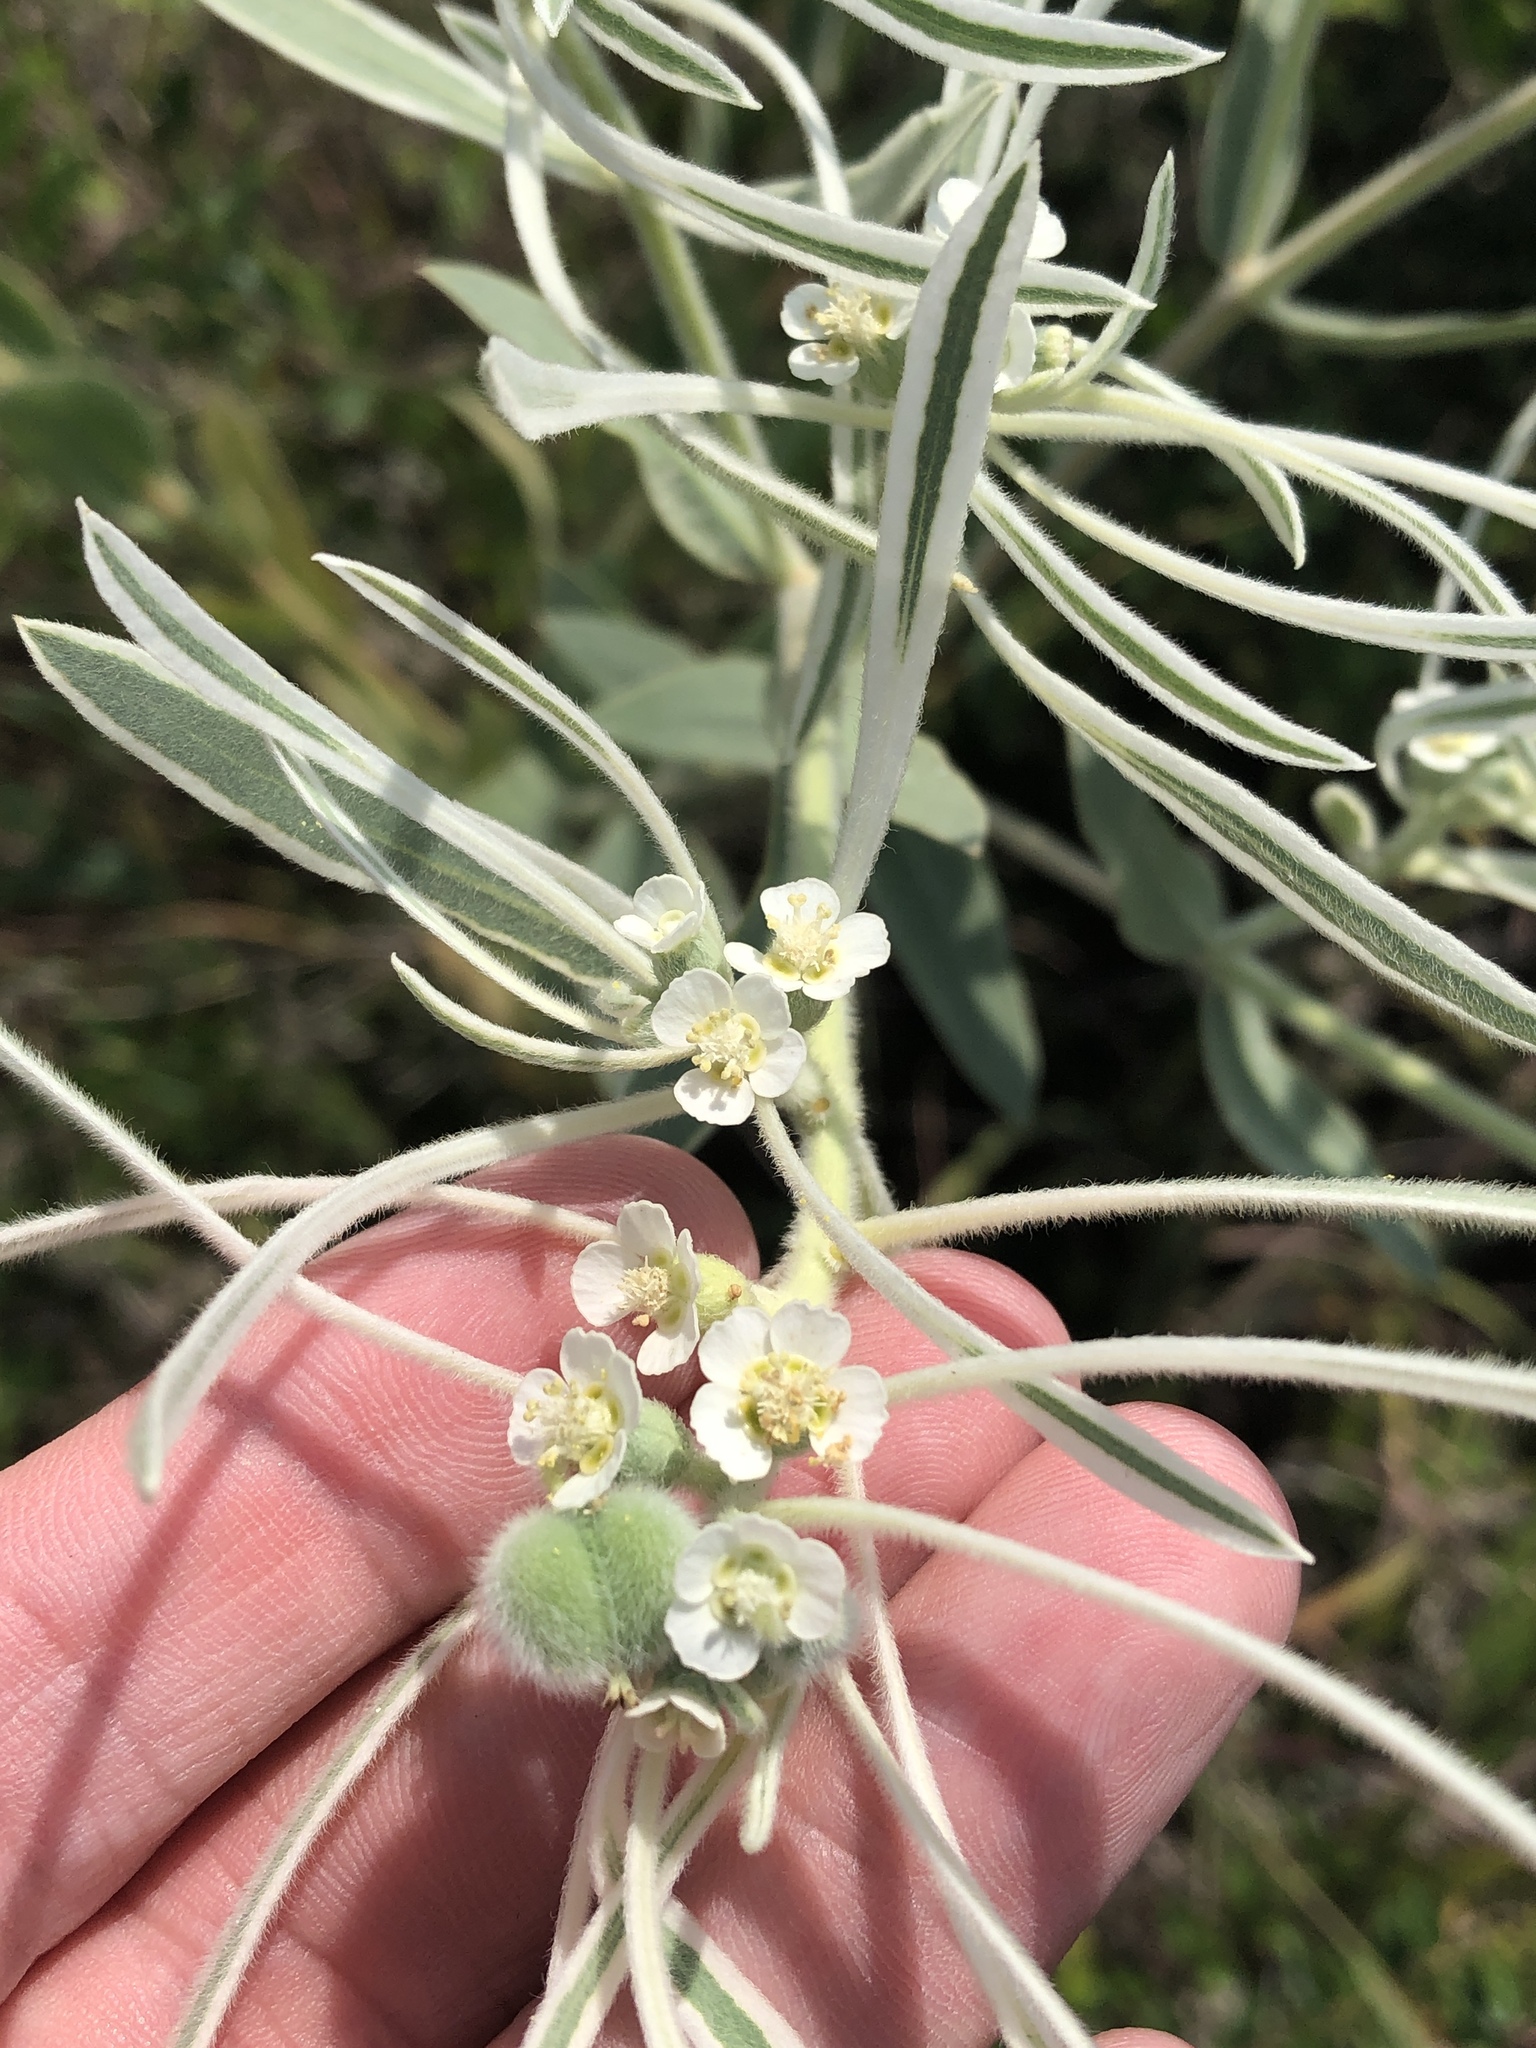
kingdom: Plantae
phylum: Tracheophyta
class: Magnoliopsida
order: Malpighiales
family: Euphorbiaceae
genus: Euphorbia
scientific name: Euphorbia bicolor
